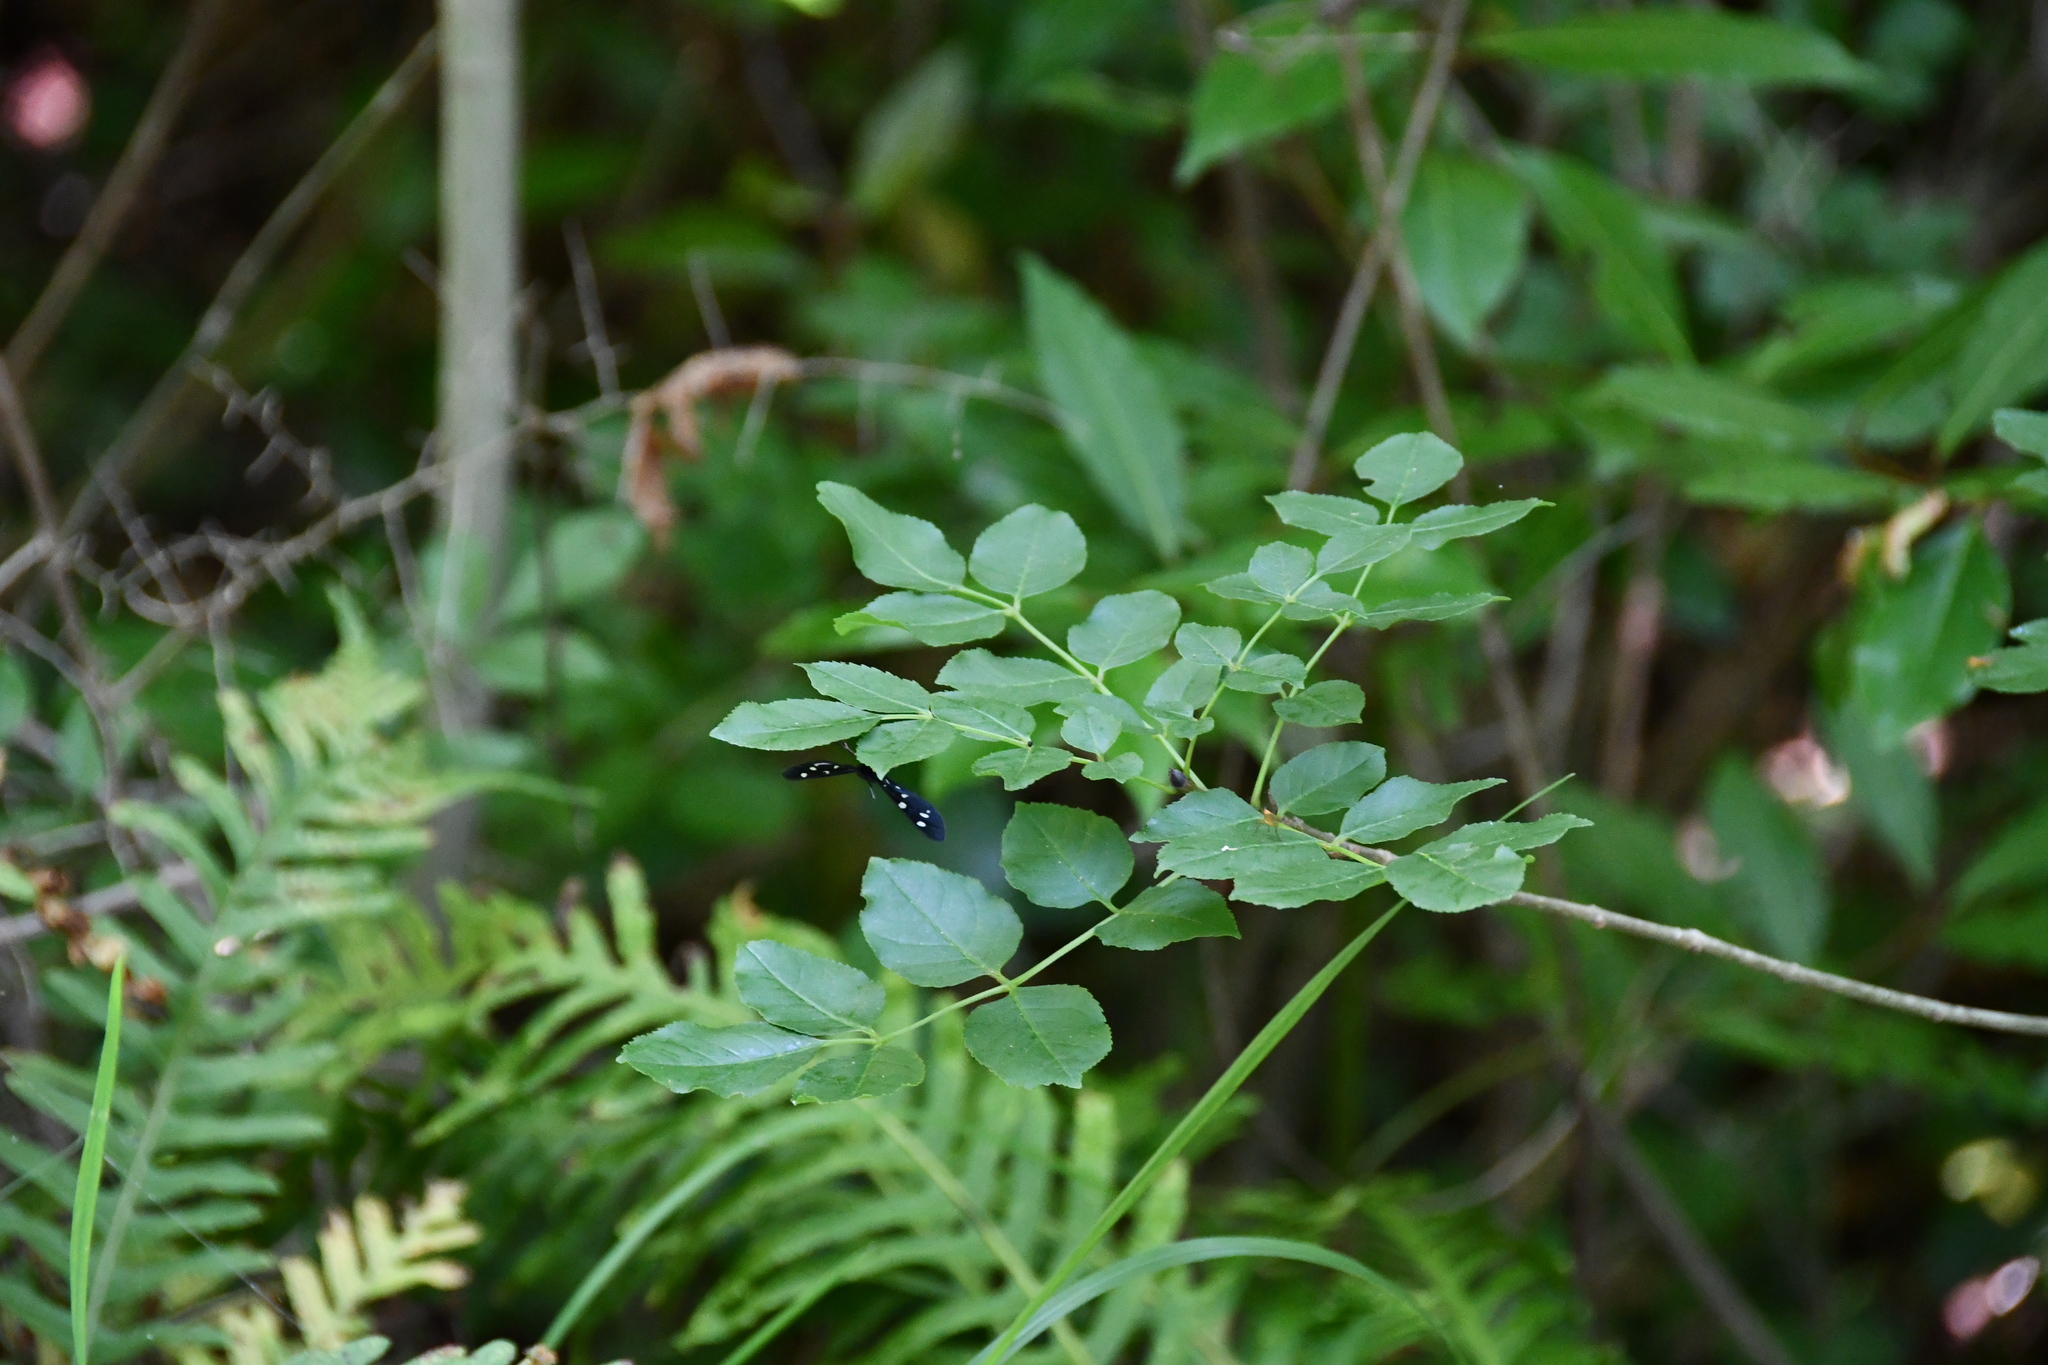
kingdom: Animalia
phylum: Arthropoda
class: Insecta
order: Lepidoptera
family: Erebidae
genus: Amata
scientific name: Amata phegea
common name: Nine-spotted
